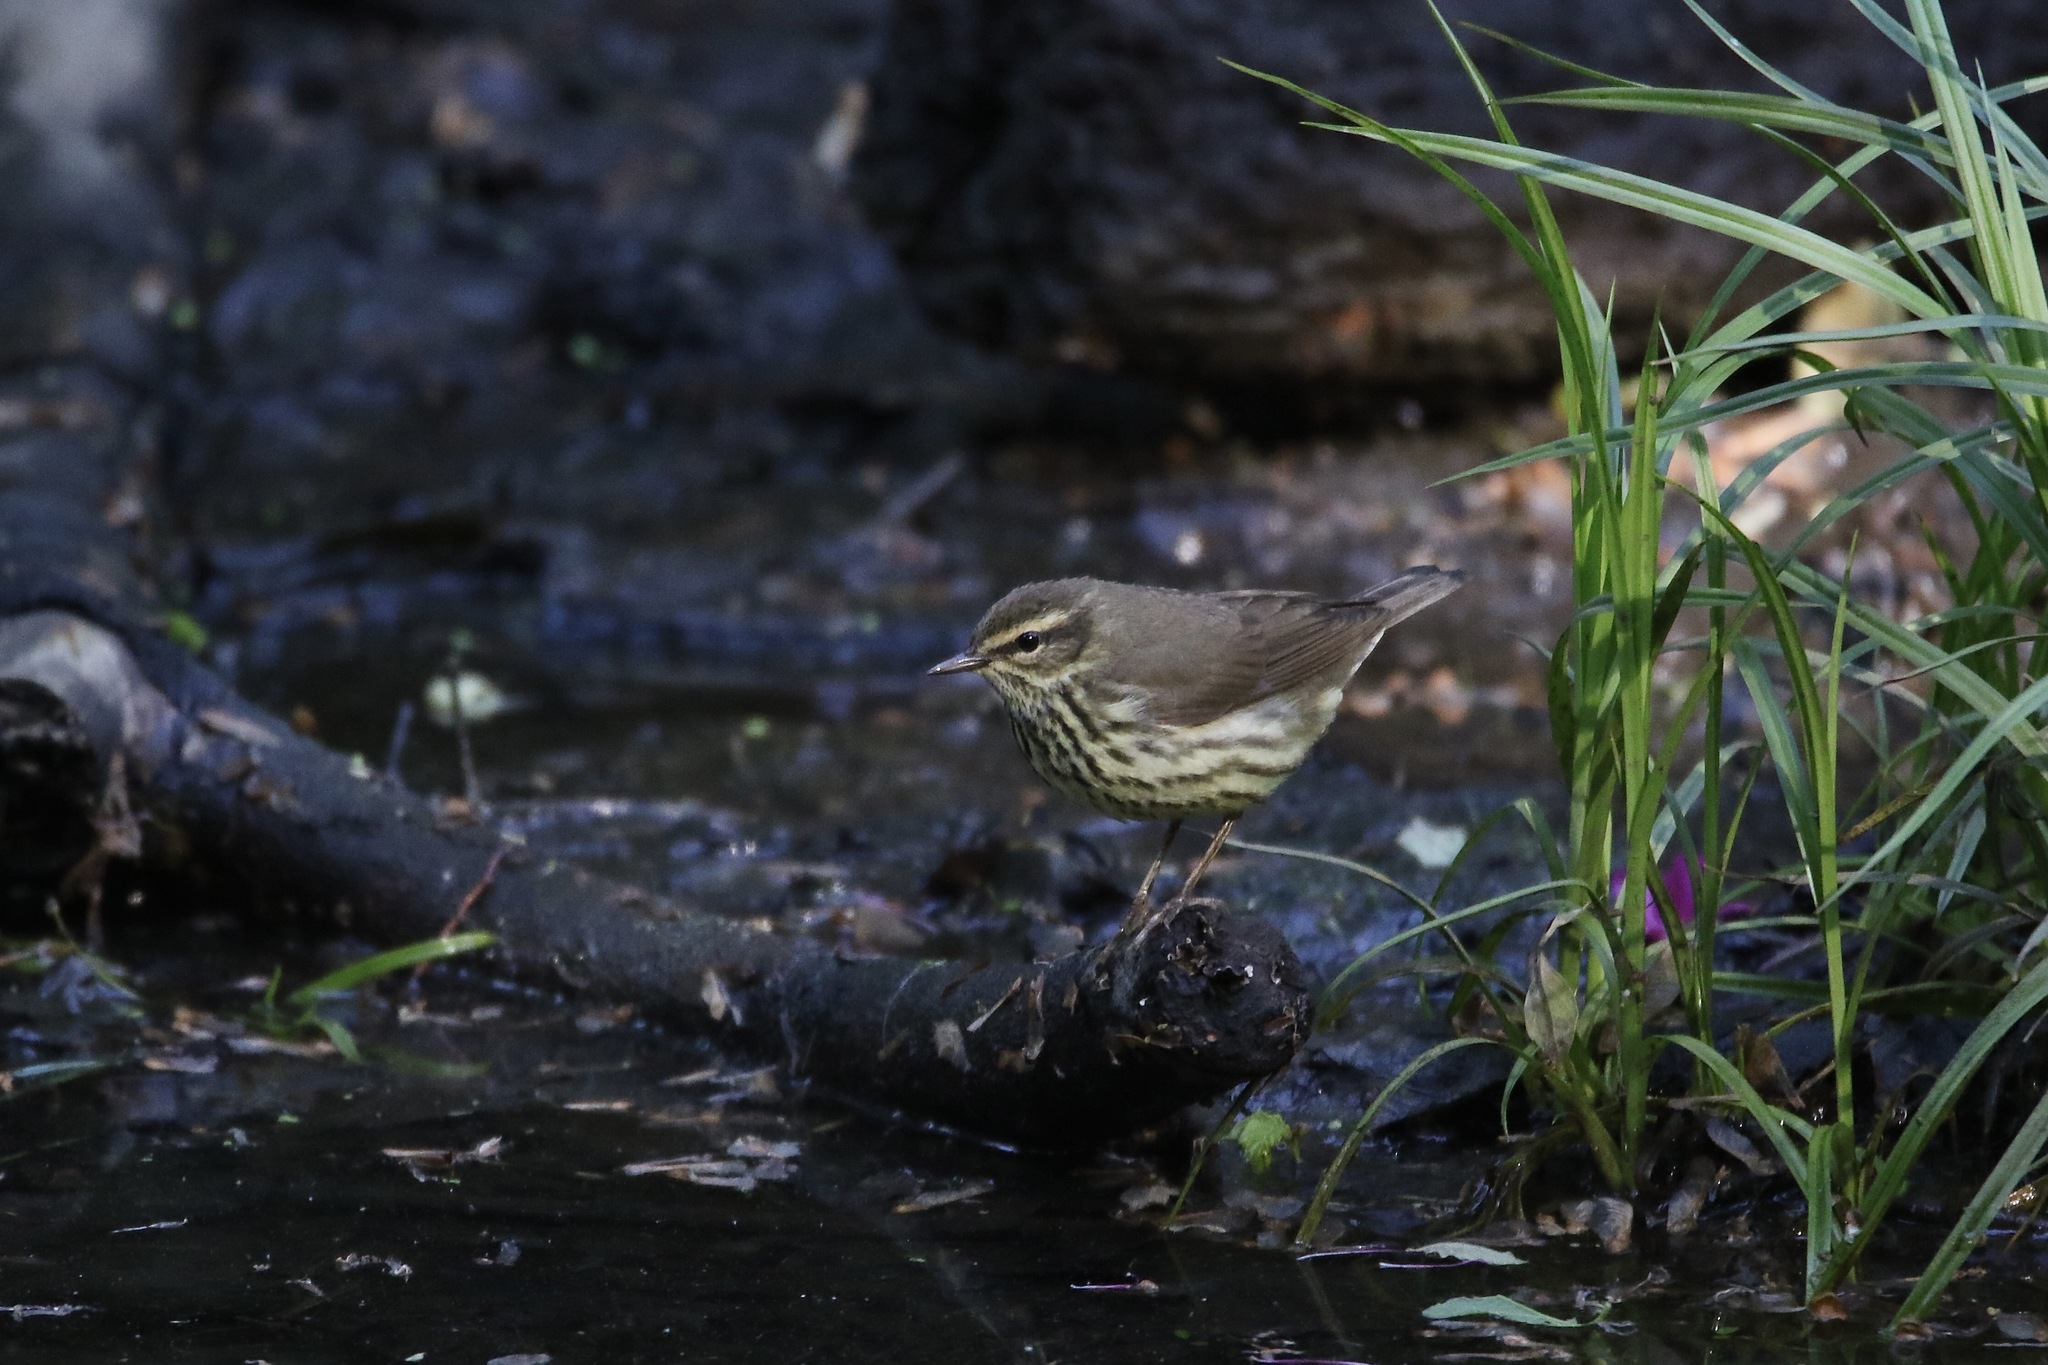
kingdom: Animalia
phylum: Chordata
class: Aves
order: Passeriformes
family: Parulidae
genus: Parkesia
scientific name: Parkesia noveboracensis
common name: Northern waterthrush
